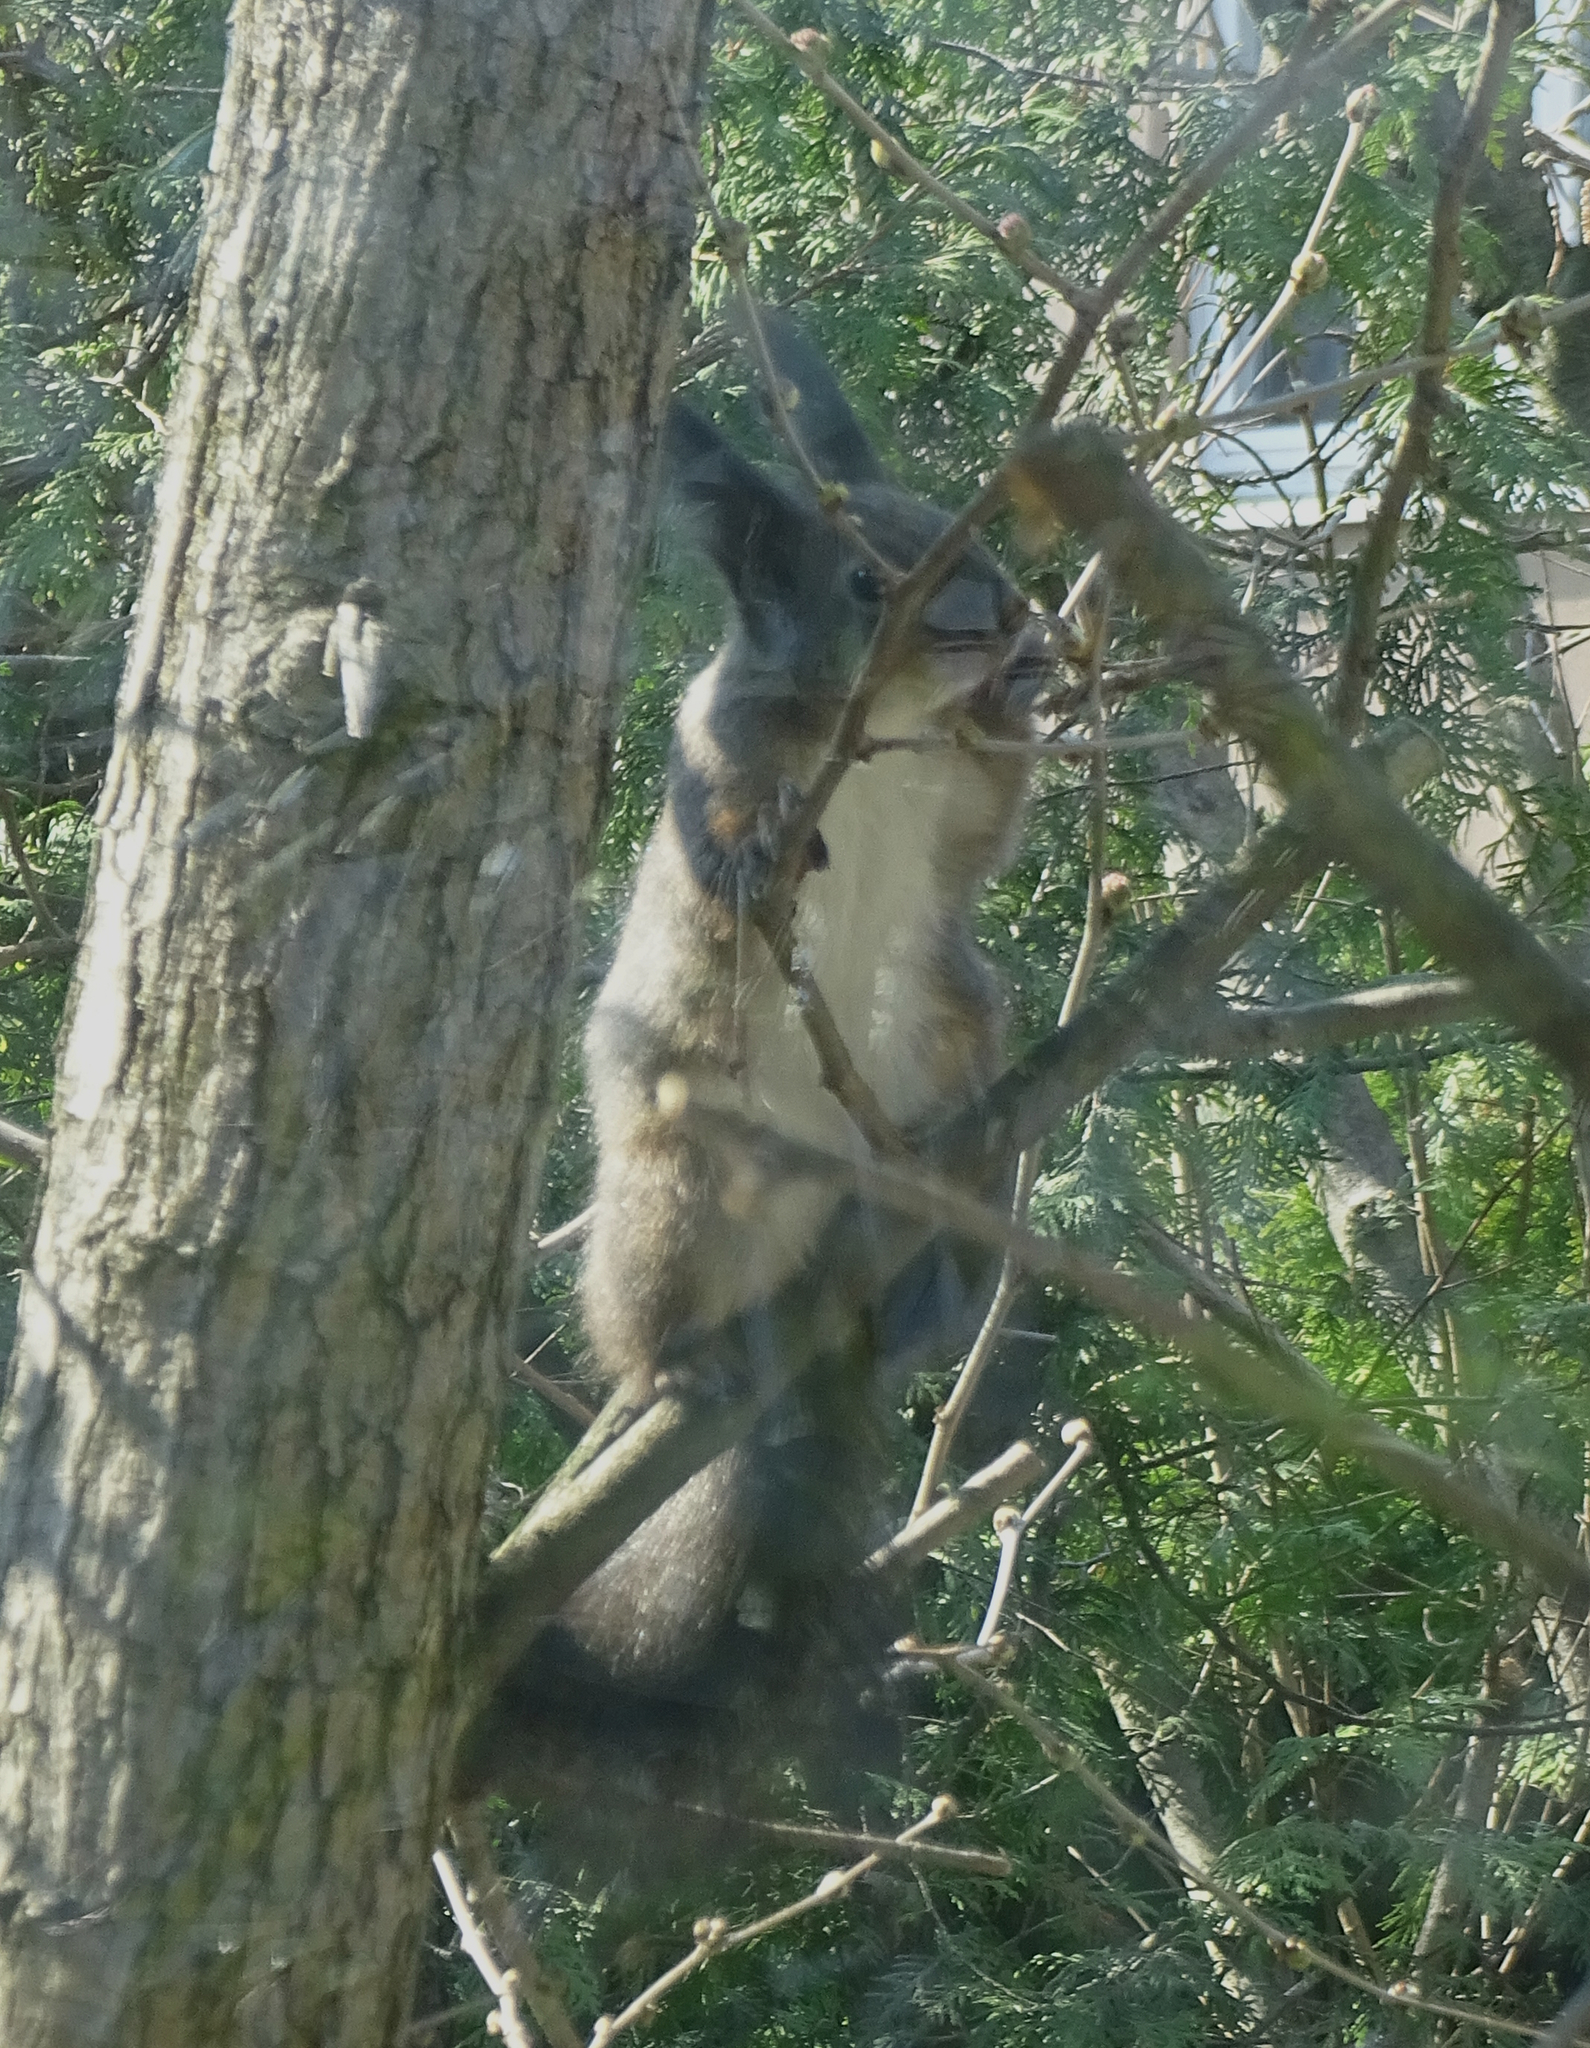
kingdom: Animalia
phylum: Chordata
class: Mammalia
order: Rodentia
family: Sciuridae
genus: Sciurus
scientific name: Sciurus vulgaris
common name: Eurasian red squirrel
